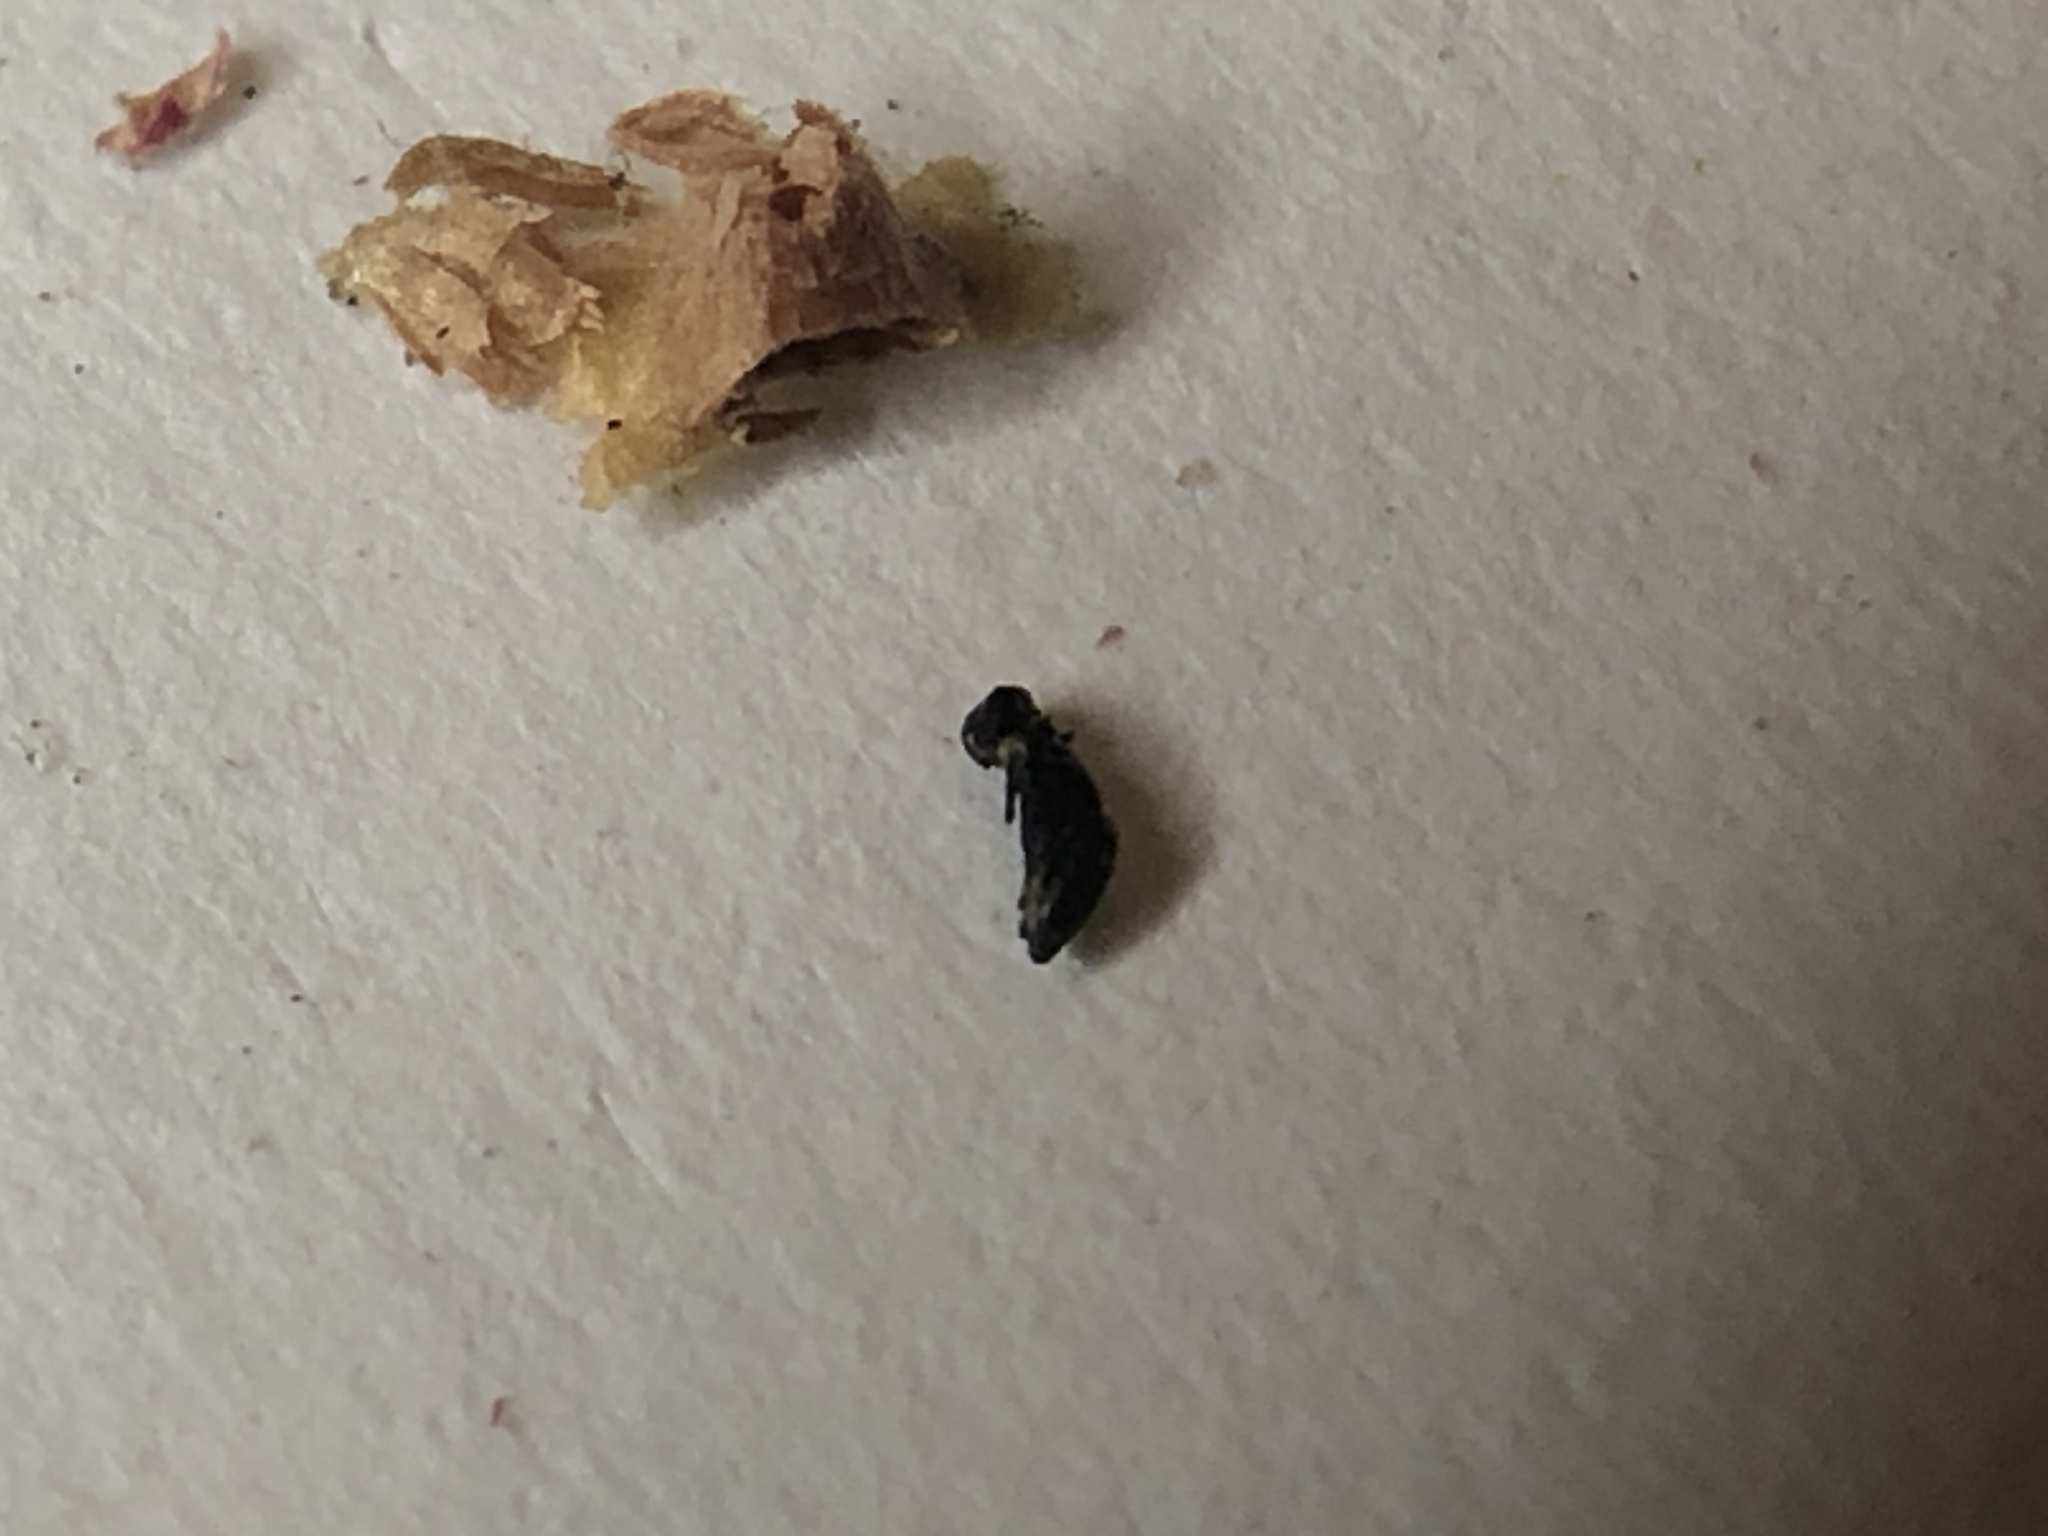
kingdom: Animalia
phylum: Arthropoda
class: Insecta
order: Hymenoptera
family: Cynipidae
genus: Andricus
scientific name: Andricus
